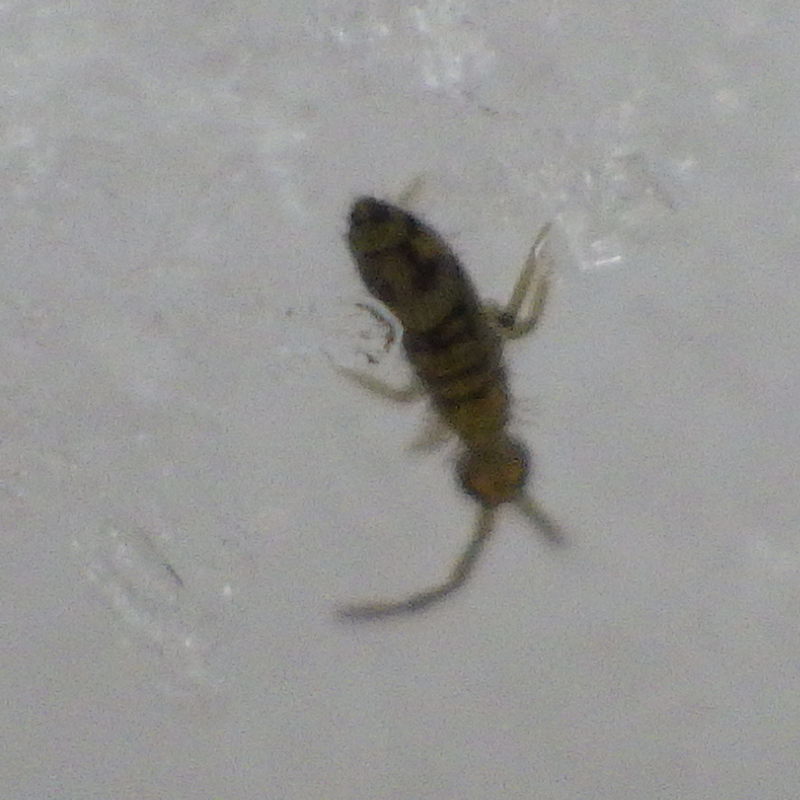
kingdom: Animalia
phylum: Arthropoda
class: Collembola
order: Entomobryomorpha
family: Entomobryidae
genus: Entomobrya
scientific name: Entomobrya nivalis
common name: Cosmopolitan springtail
